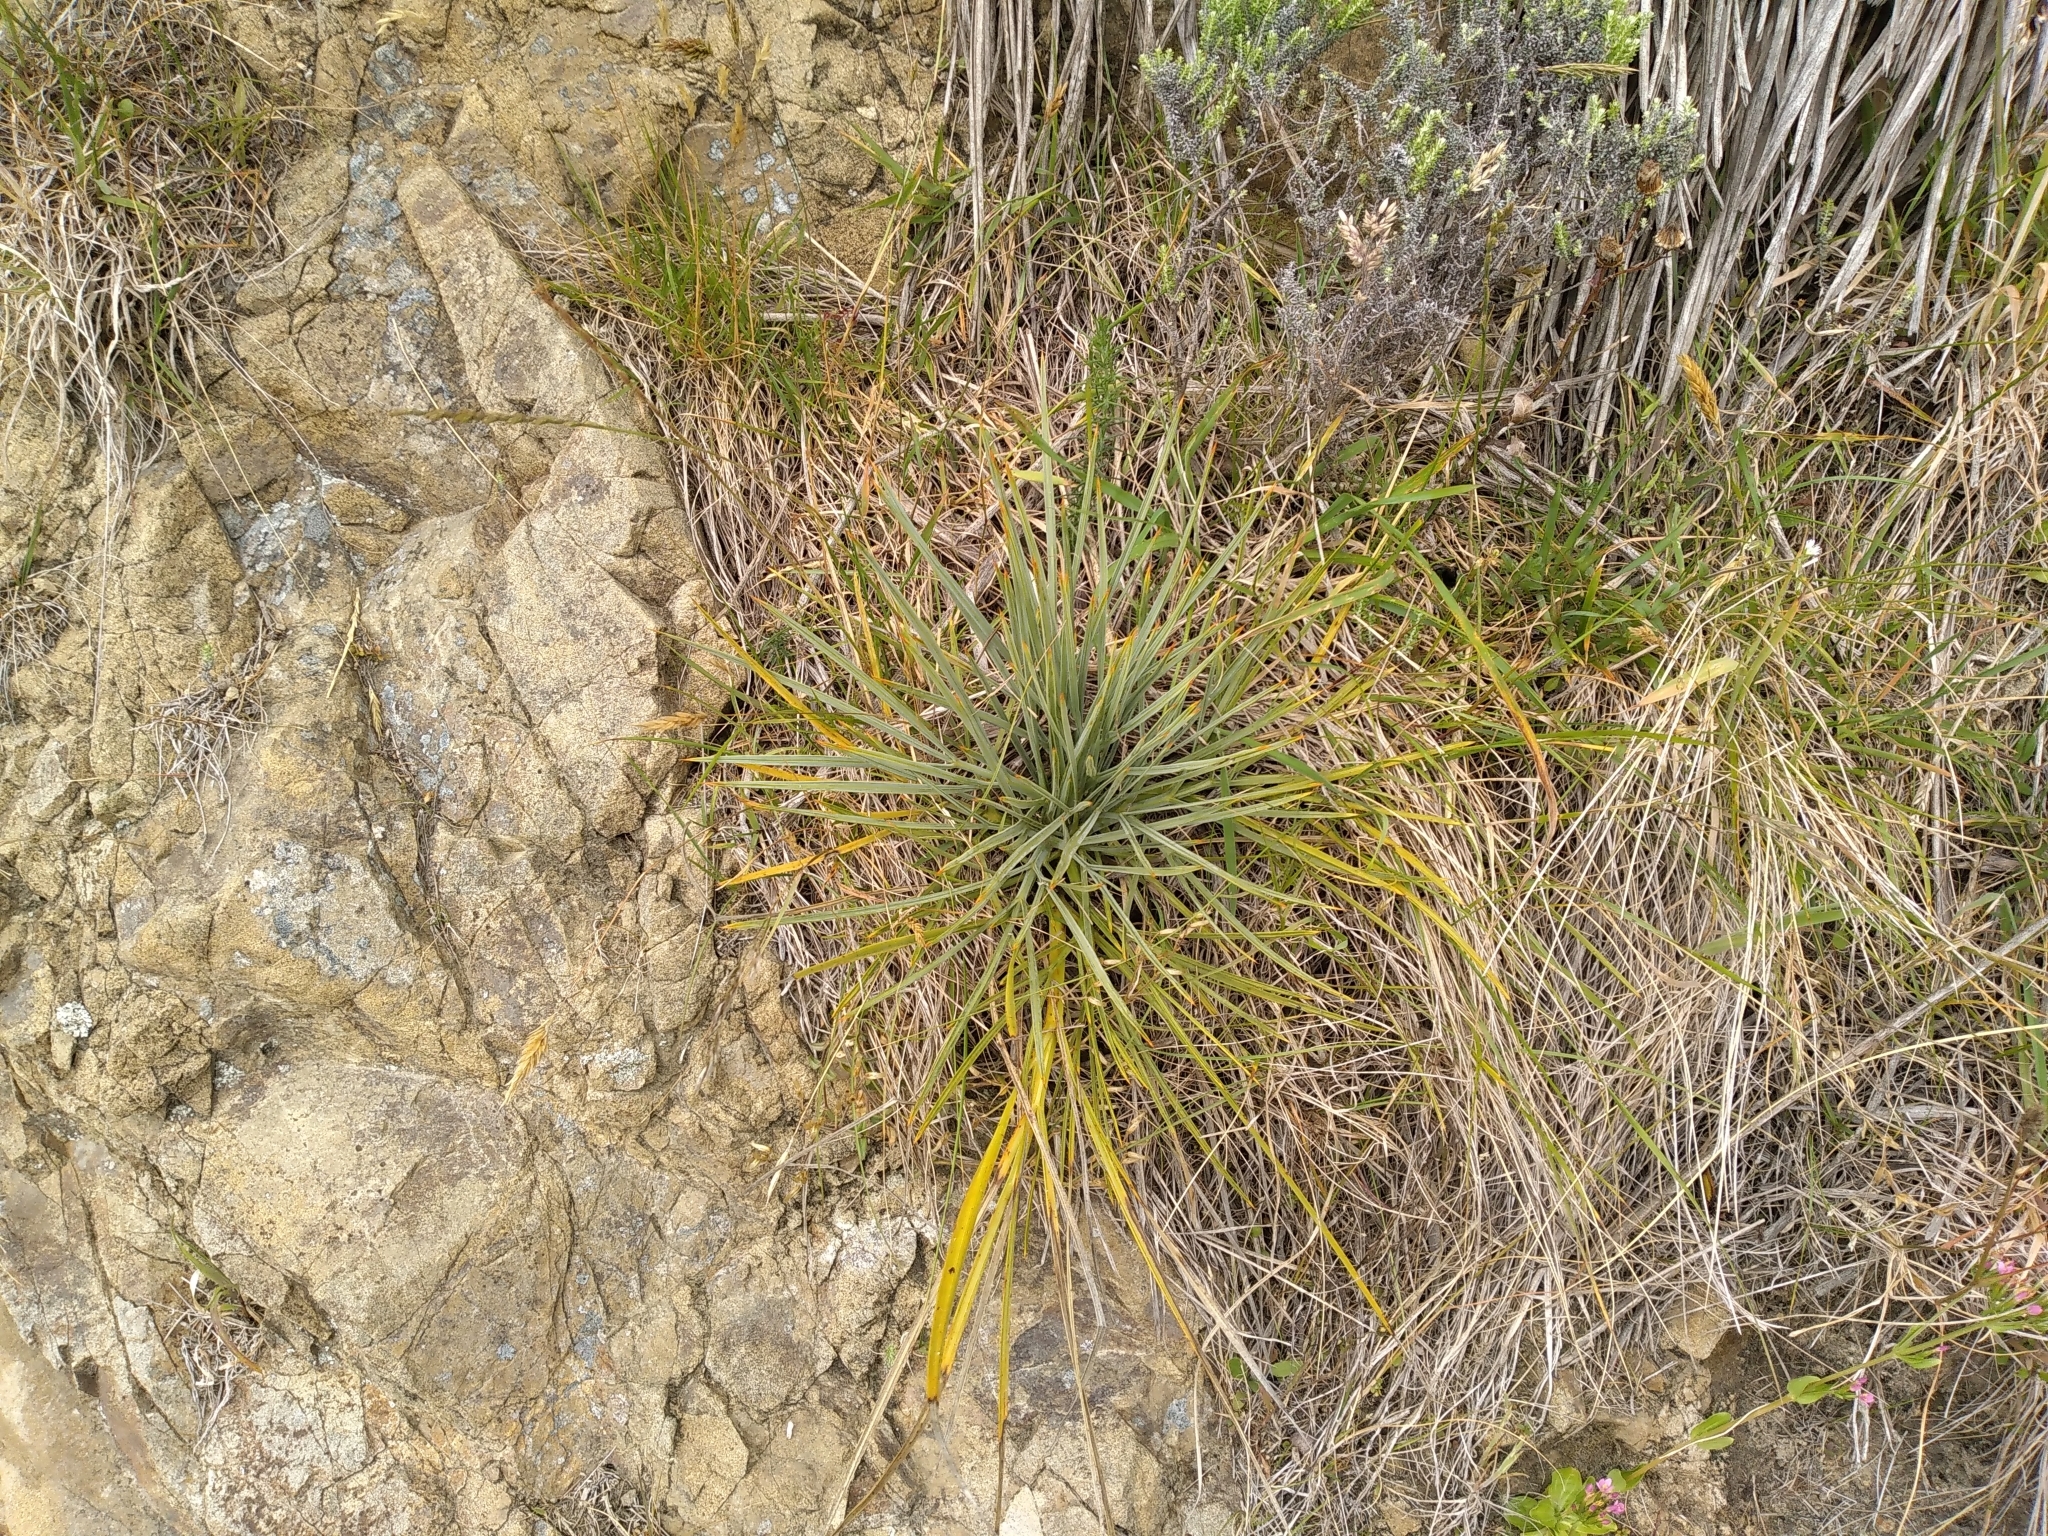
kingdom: Plantae
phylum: Tracheophyta
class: Magnoliopsida
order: Apiales
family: Apiaceae
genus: Aciphylla
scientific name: Aciphylla squarrosa
